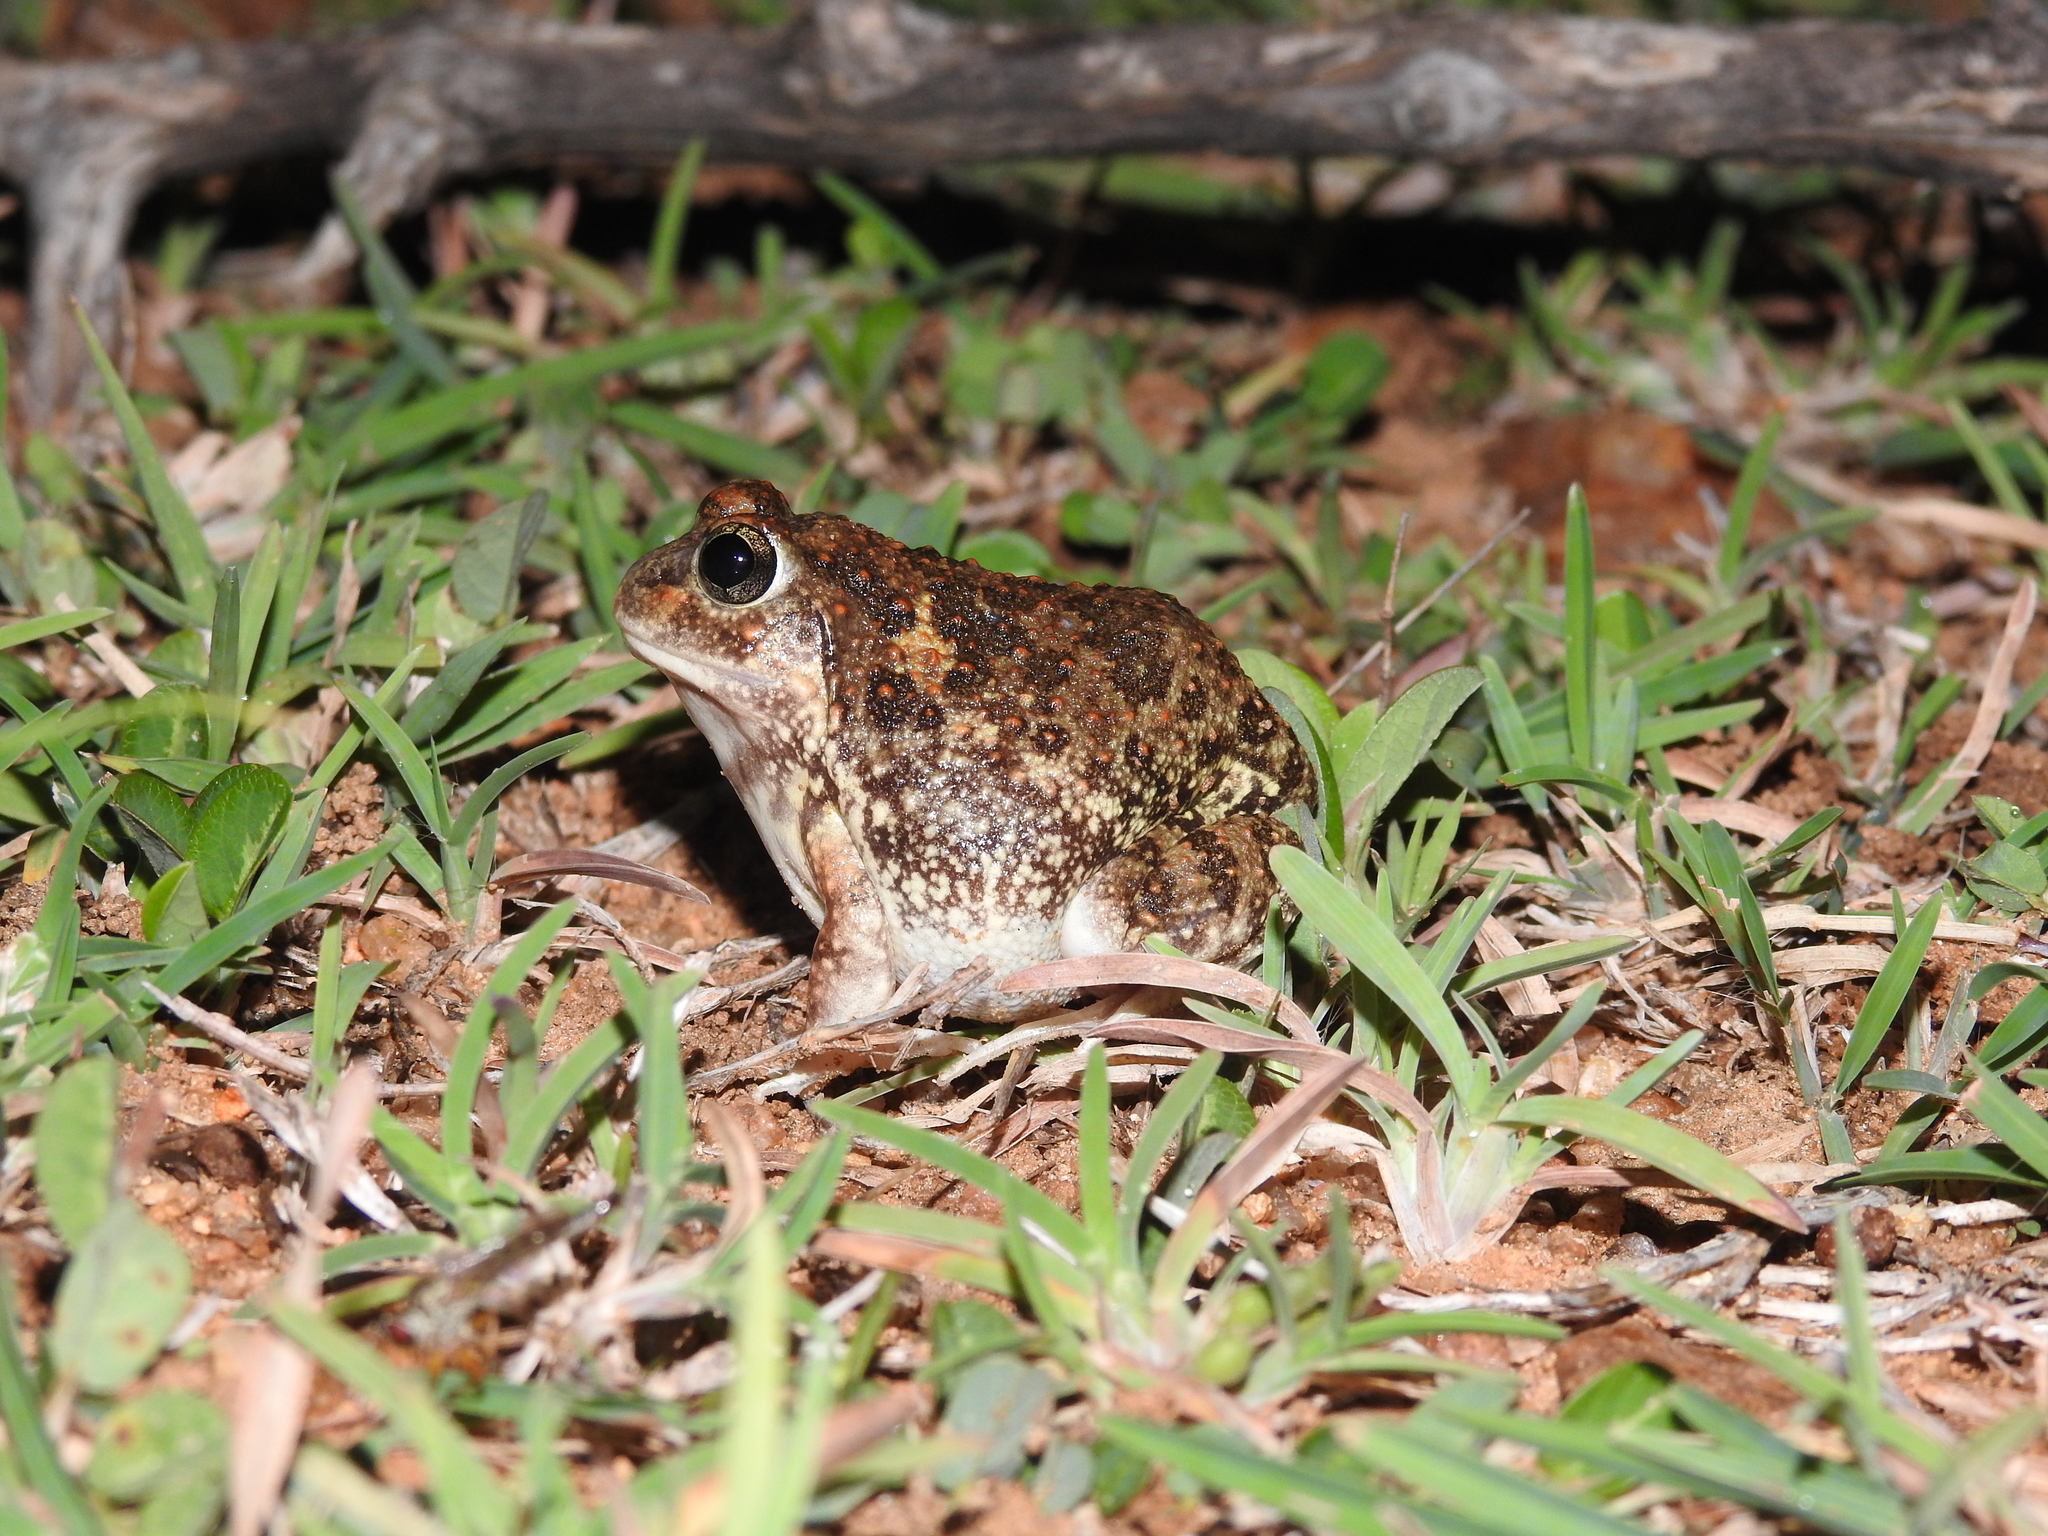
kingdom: Animalia
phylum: Chordata
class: Amphibia
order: Anura
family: Dicroglossidae
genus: Sphaerotheca
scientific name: Sphaerotheca bengaluru
